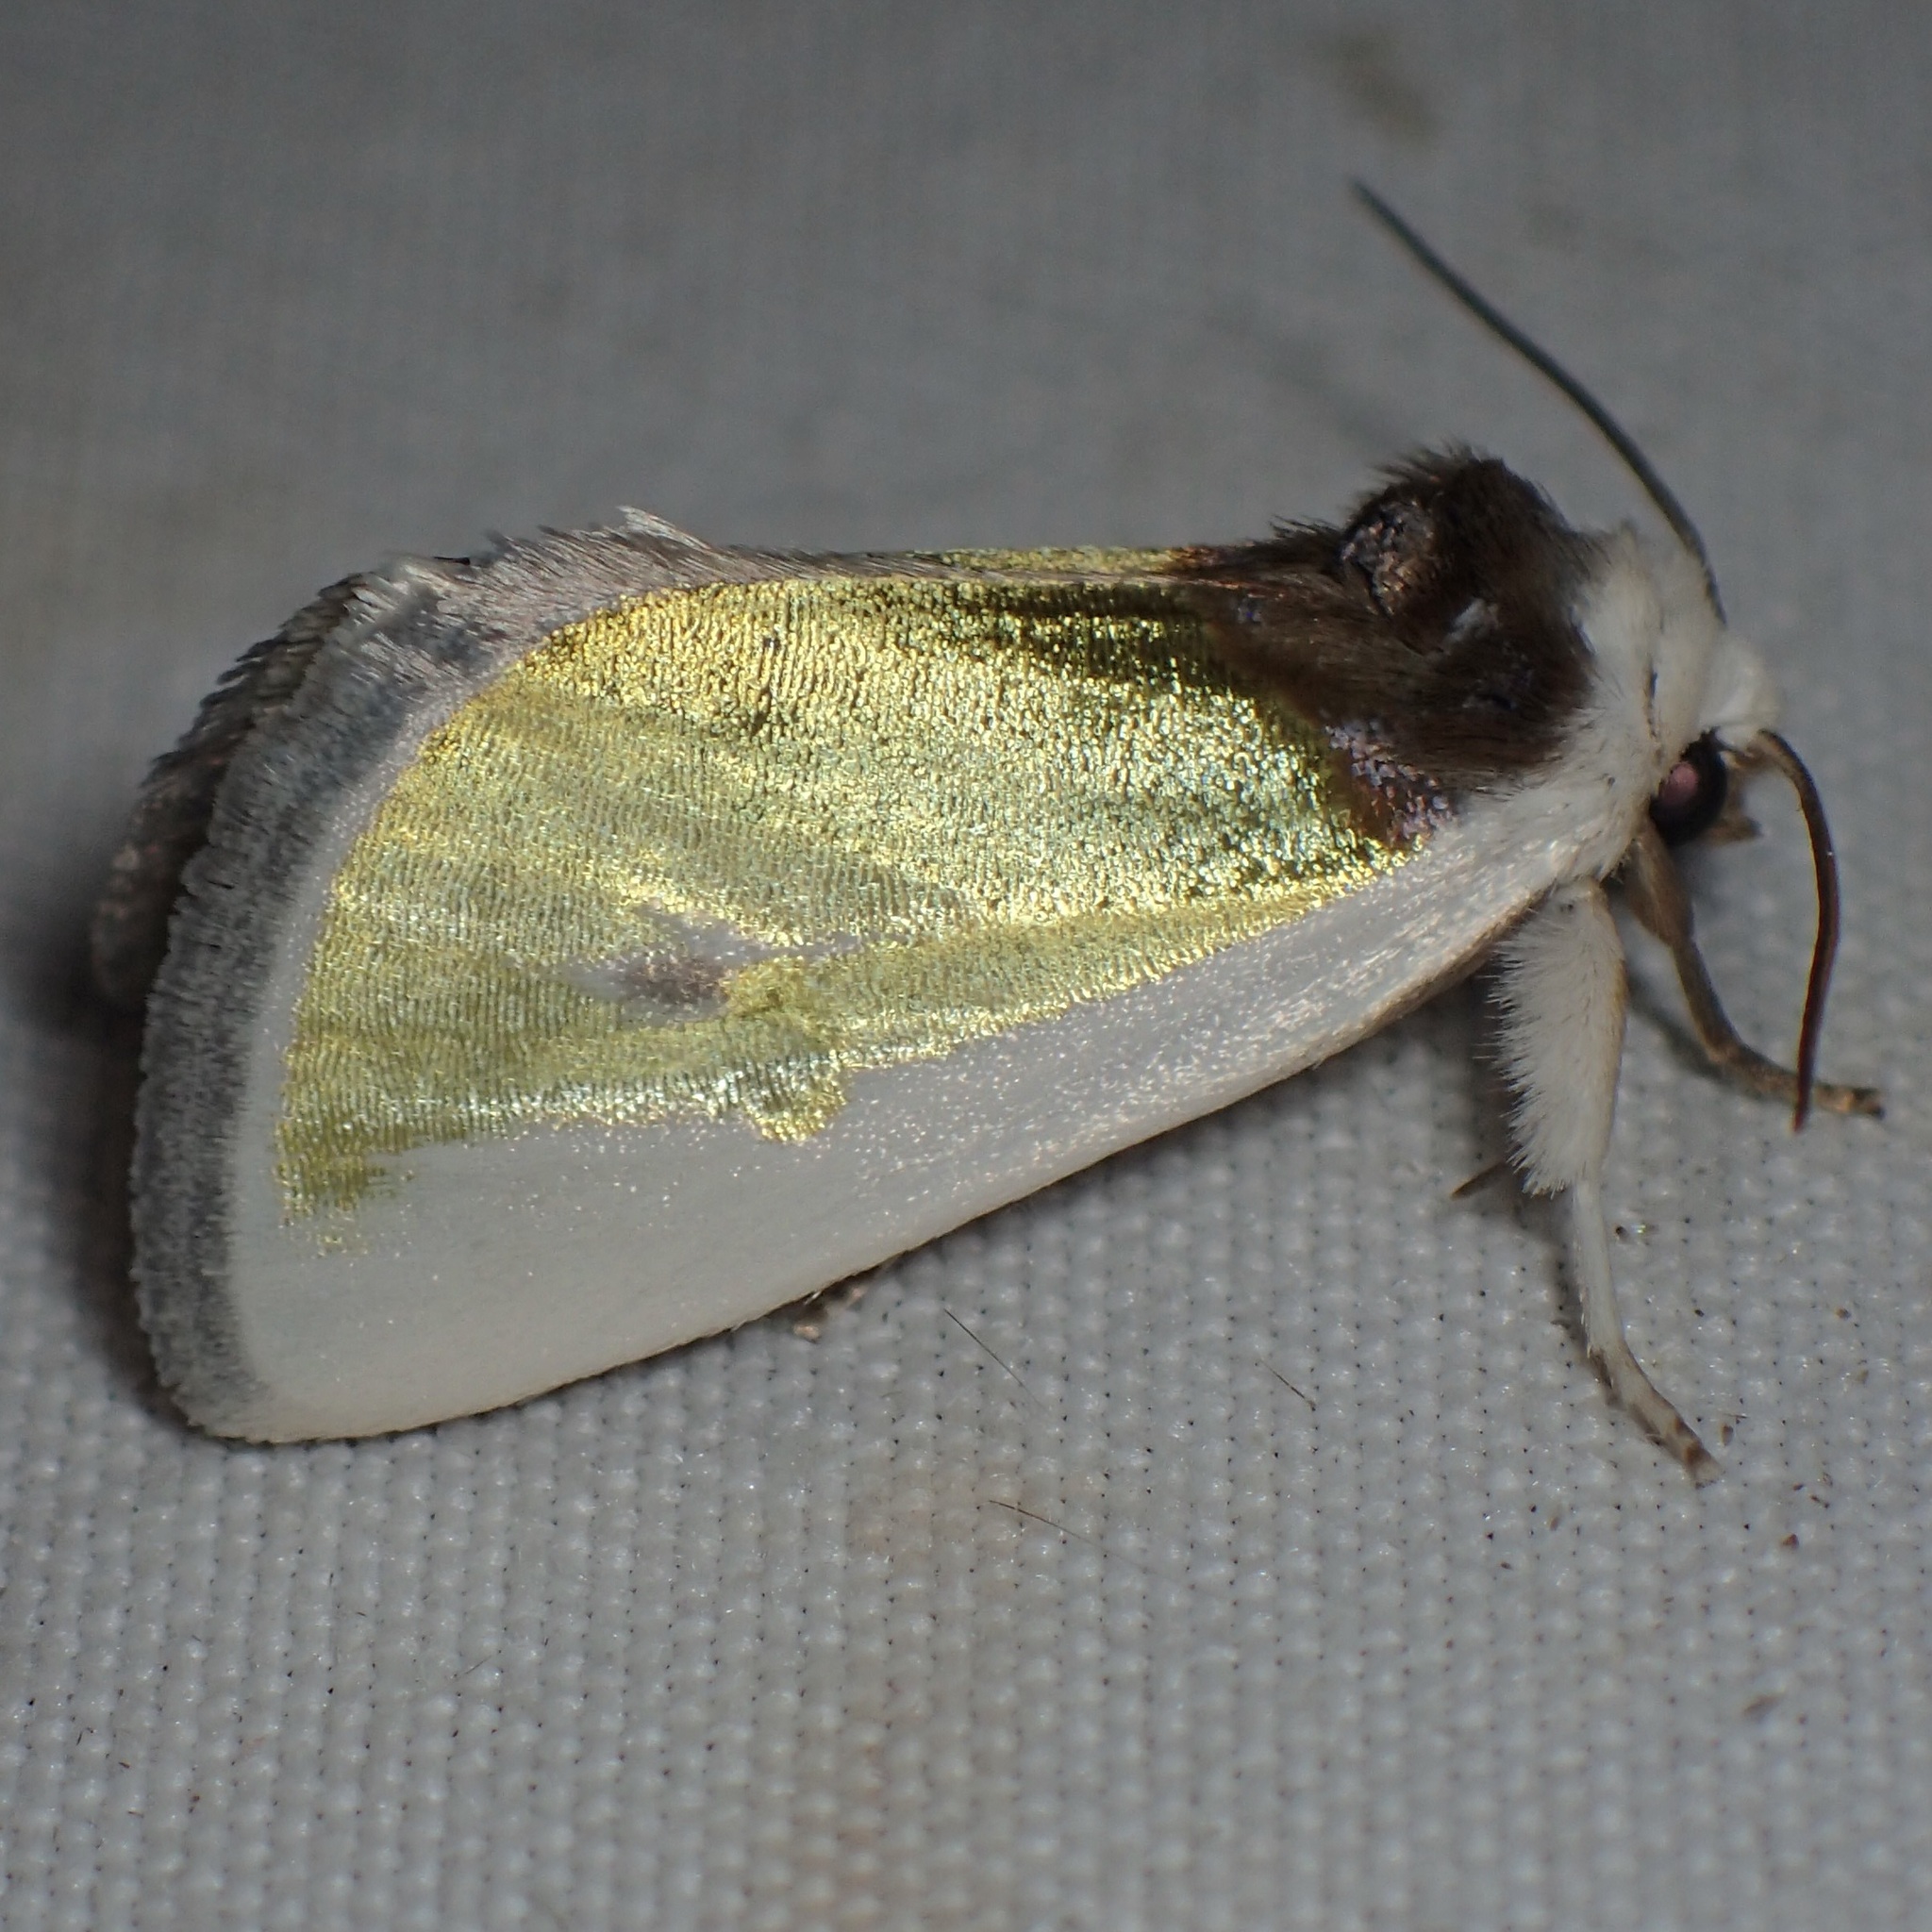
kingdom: Animalia
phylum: Arthropoda
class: Insecta
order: Lepidoptera
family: Noctuidae
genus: Neumoegenia
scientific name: Neumoegenia poetica
